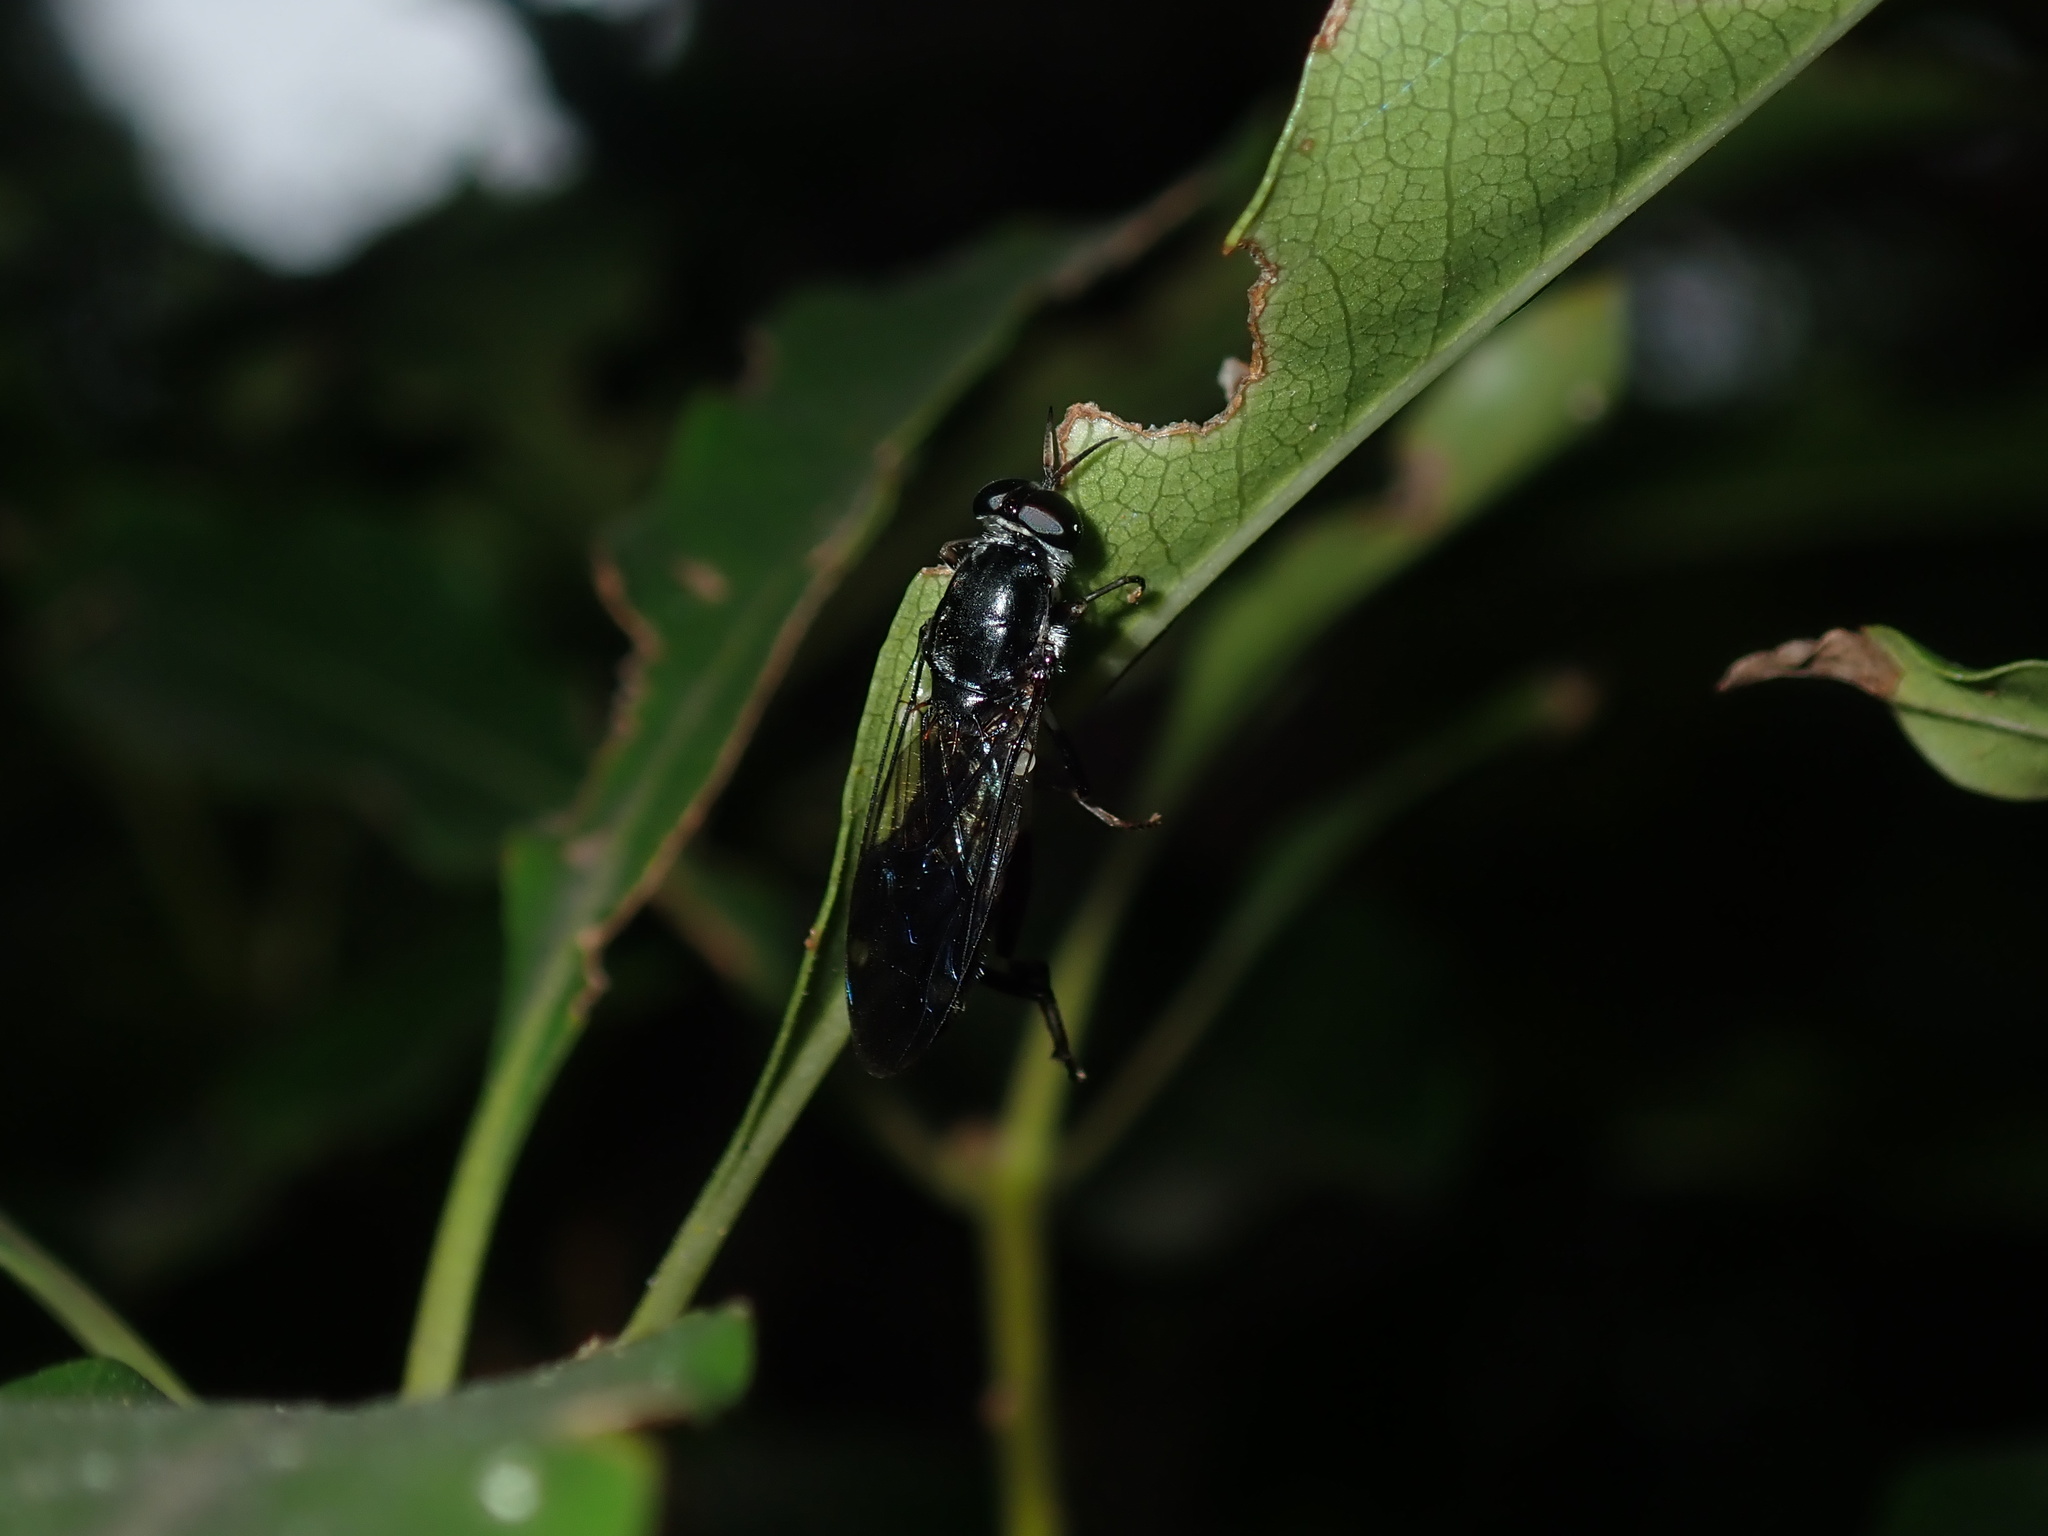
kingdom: Animalia
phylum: Arthropoda
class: Insecta
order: Diptera
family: Stratiomyidae
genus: Exaireta
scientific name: Exaireta spinigera
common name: Blue soldier fly
